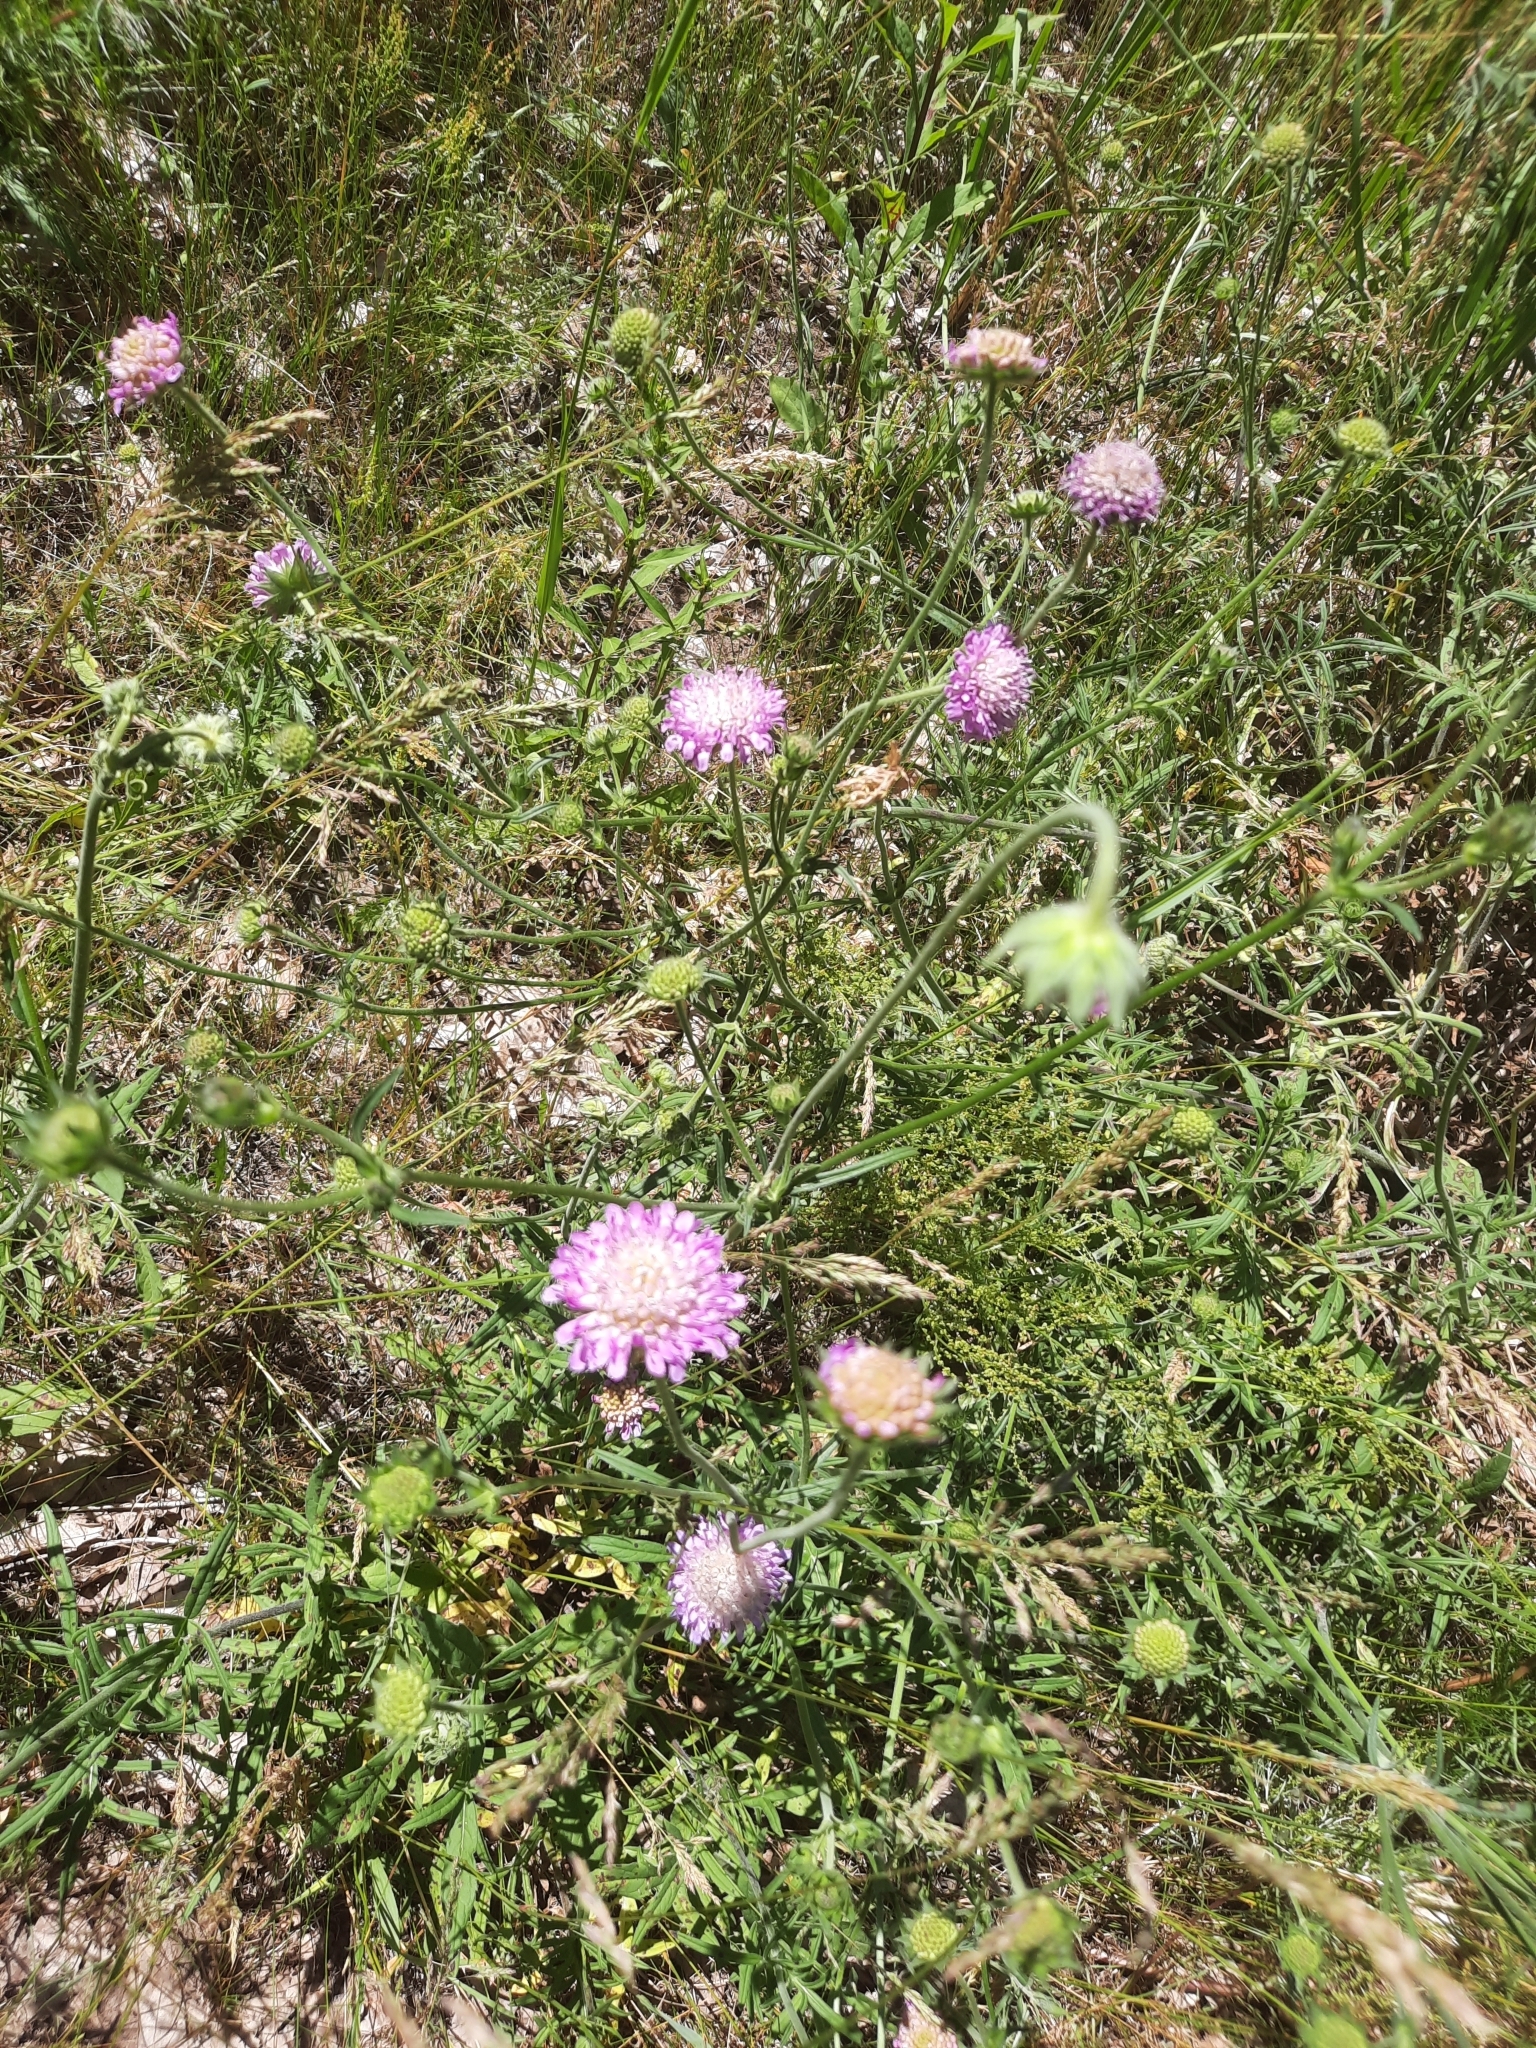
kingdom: Plantae
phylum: Tracheophyta
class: Magnoliopsida
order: Dipsacales
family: Caprifoliaceae
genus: Knautia
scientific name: Knautia arvensis
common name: Field scabiosa
